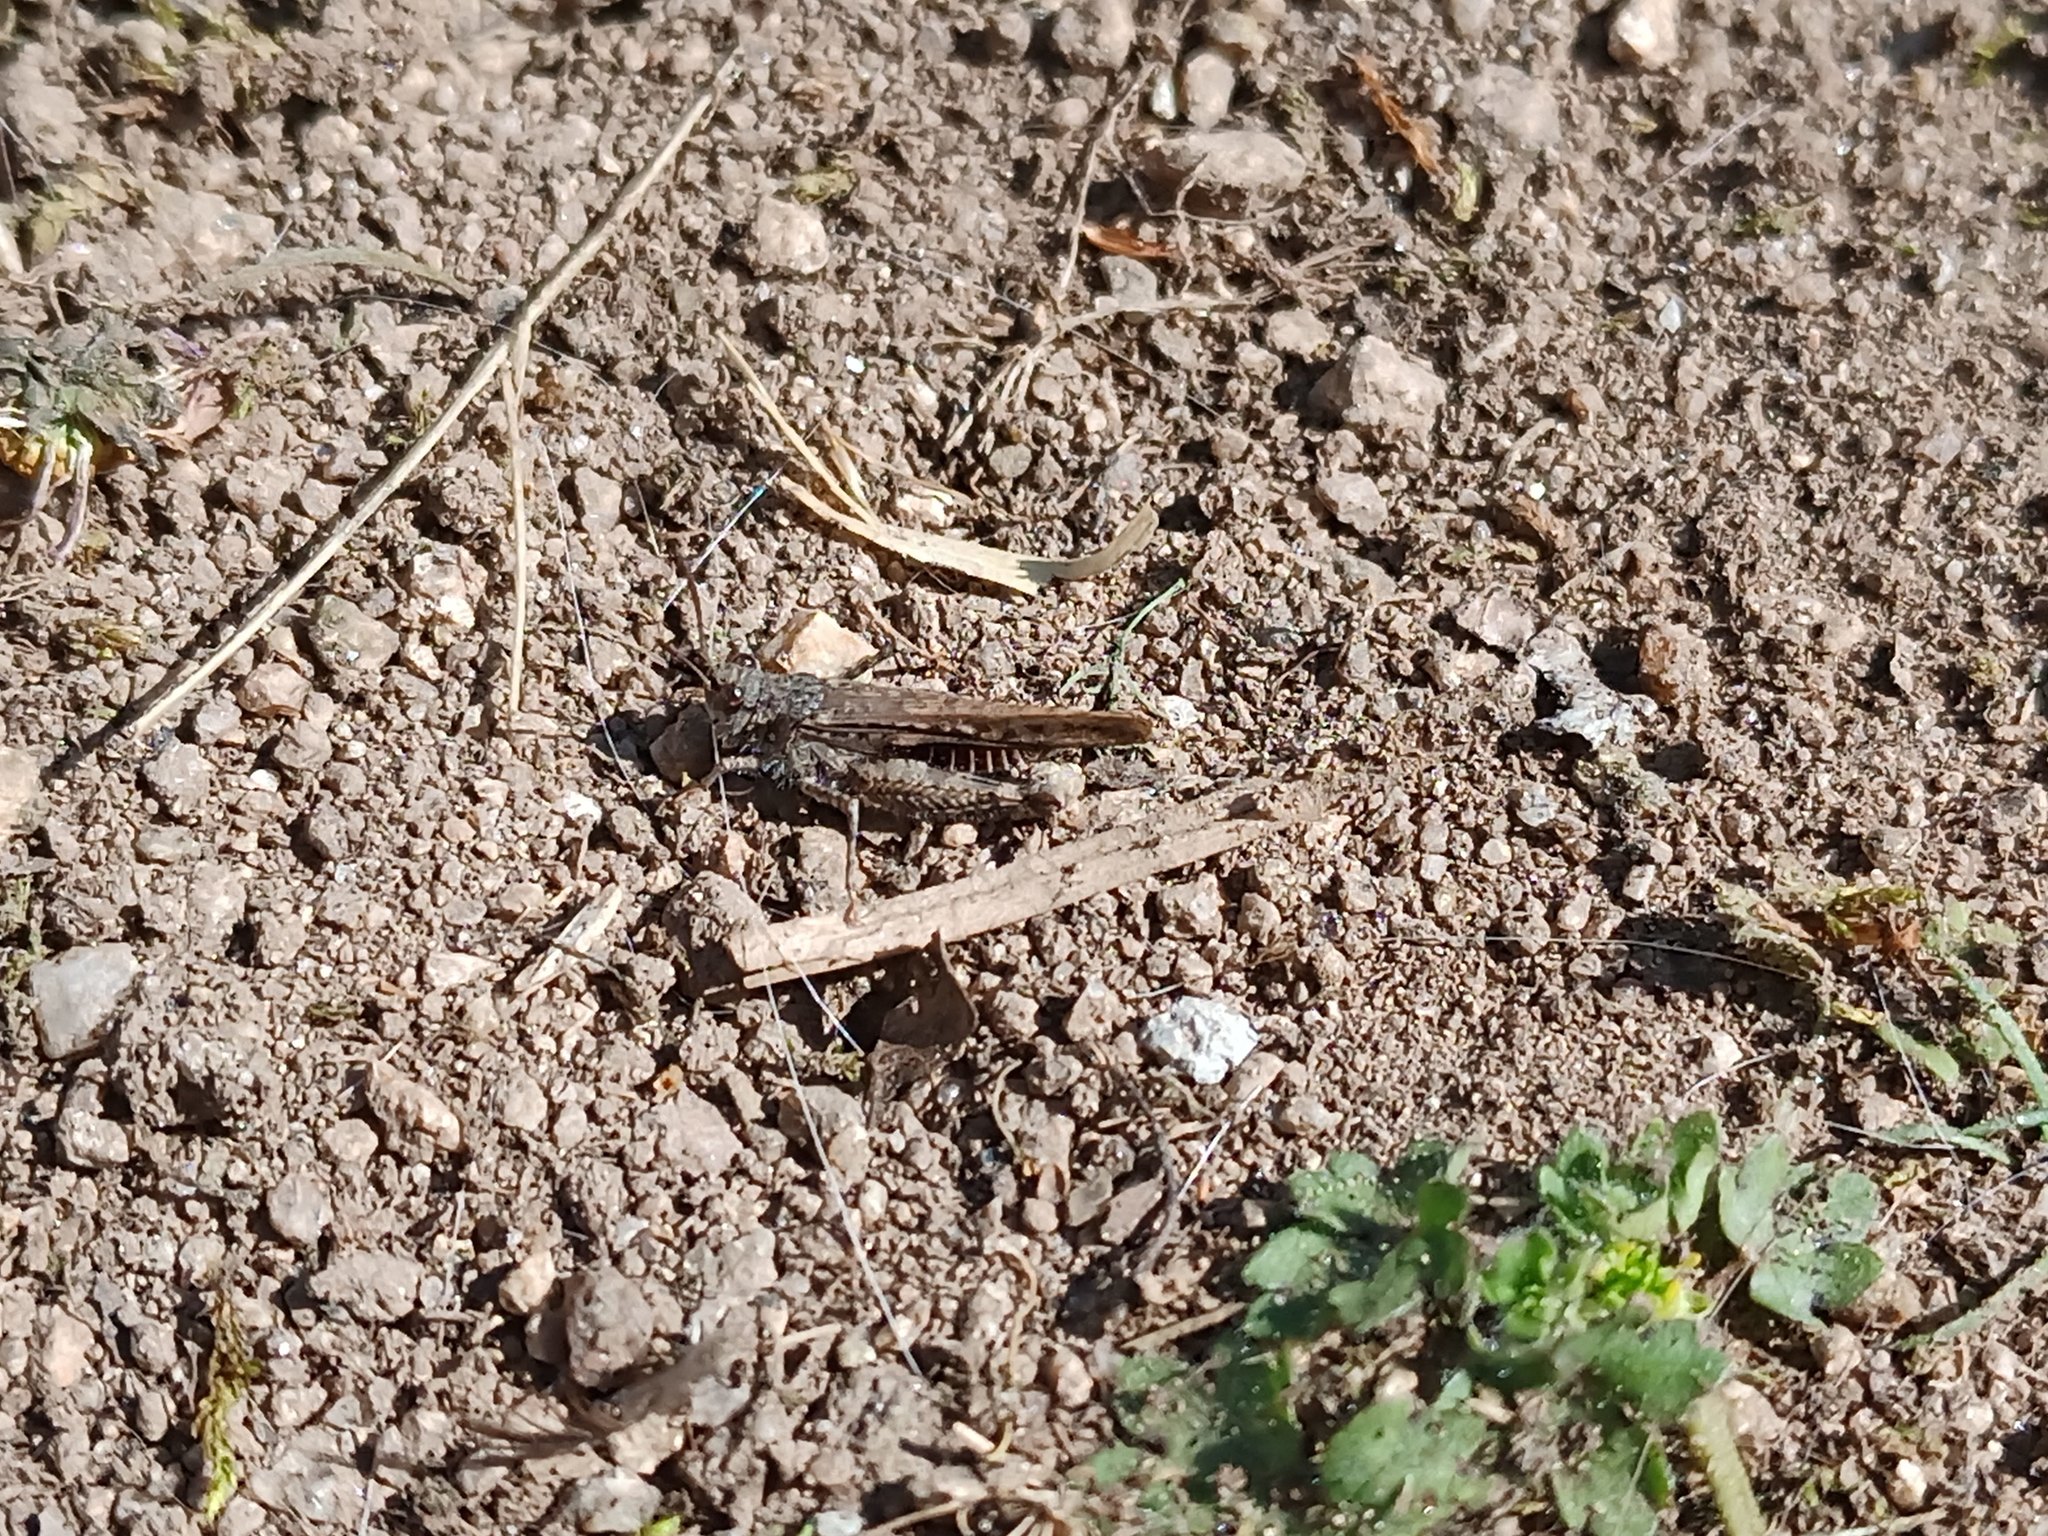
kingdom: Animalia
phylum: Arthropoda
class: Insecta
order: Orthoptera
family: Acrididae
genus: Acrotylus
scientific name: Acrotylus insubricus
